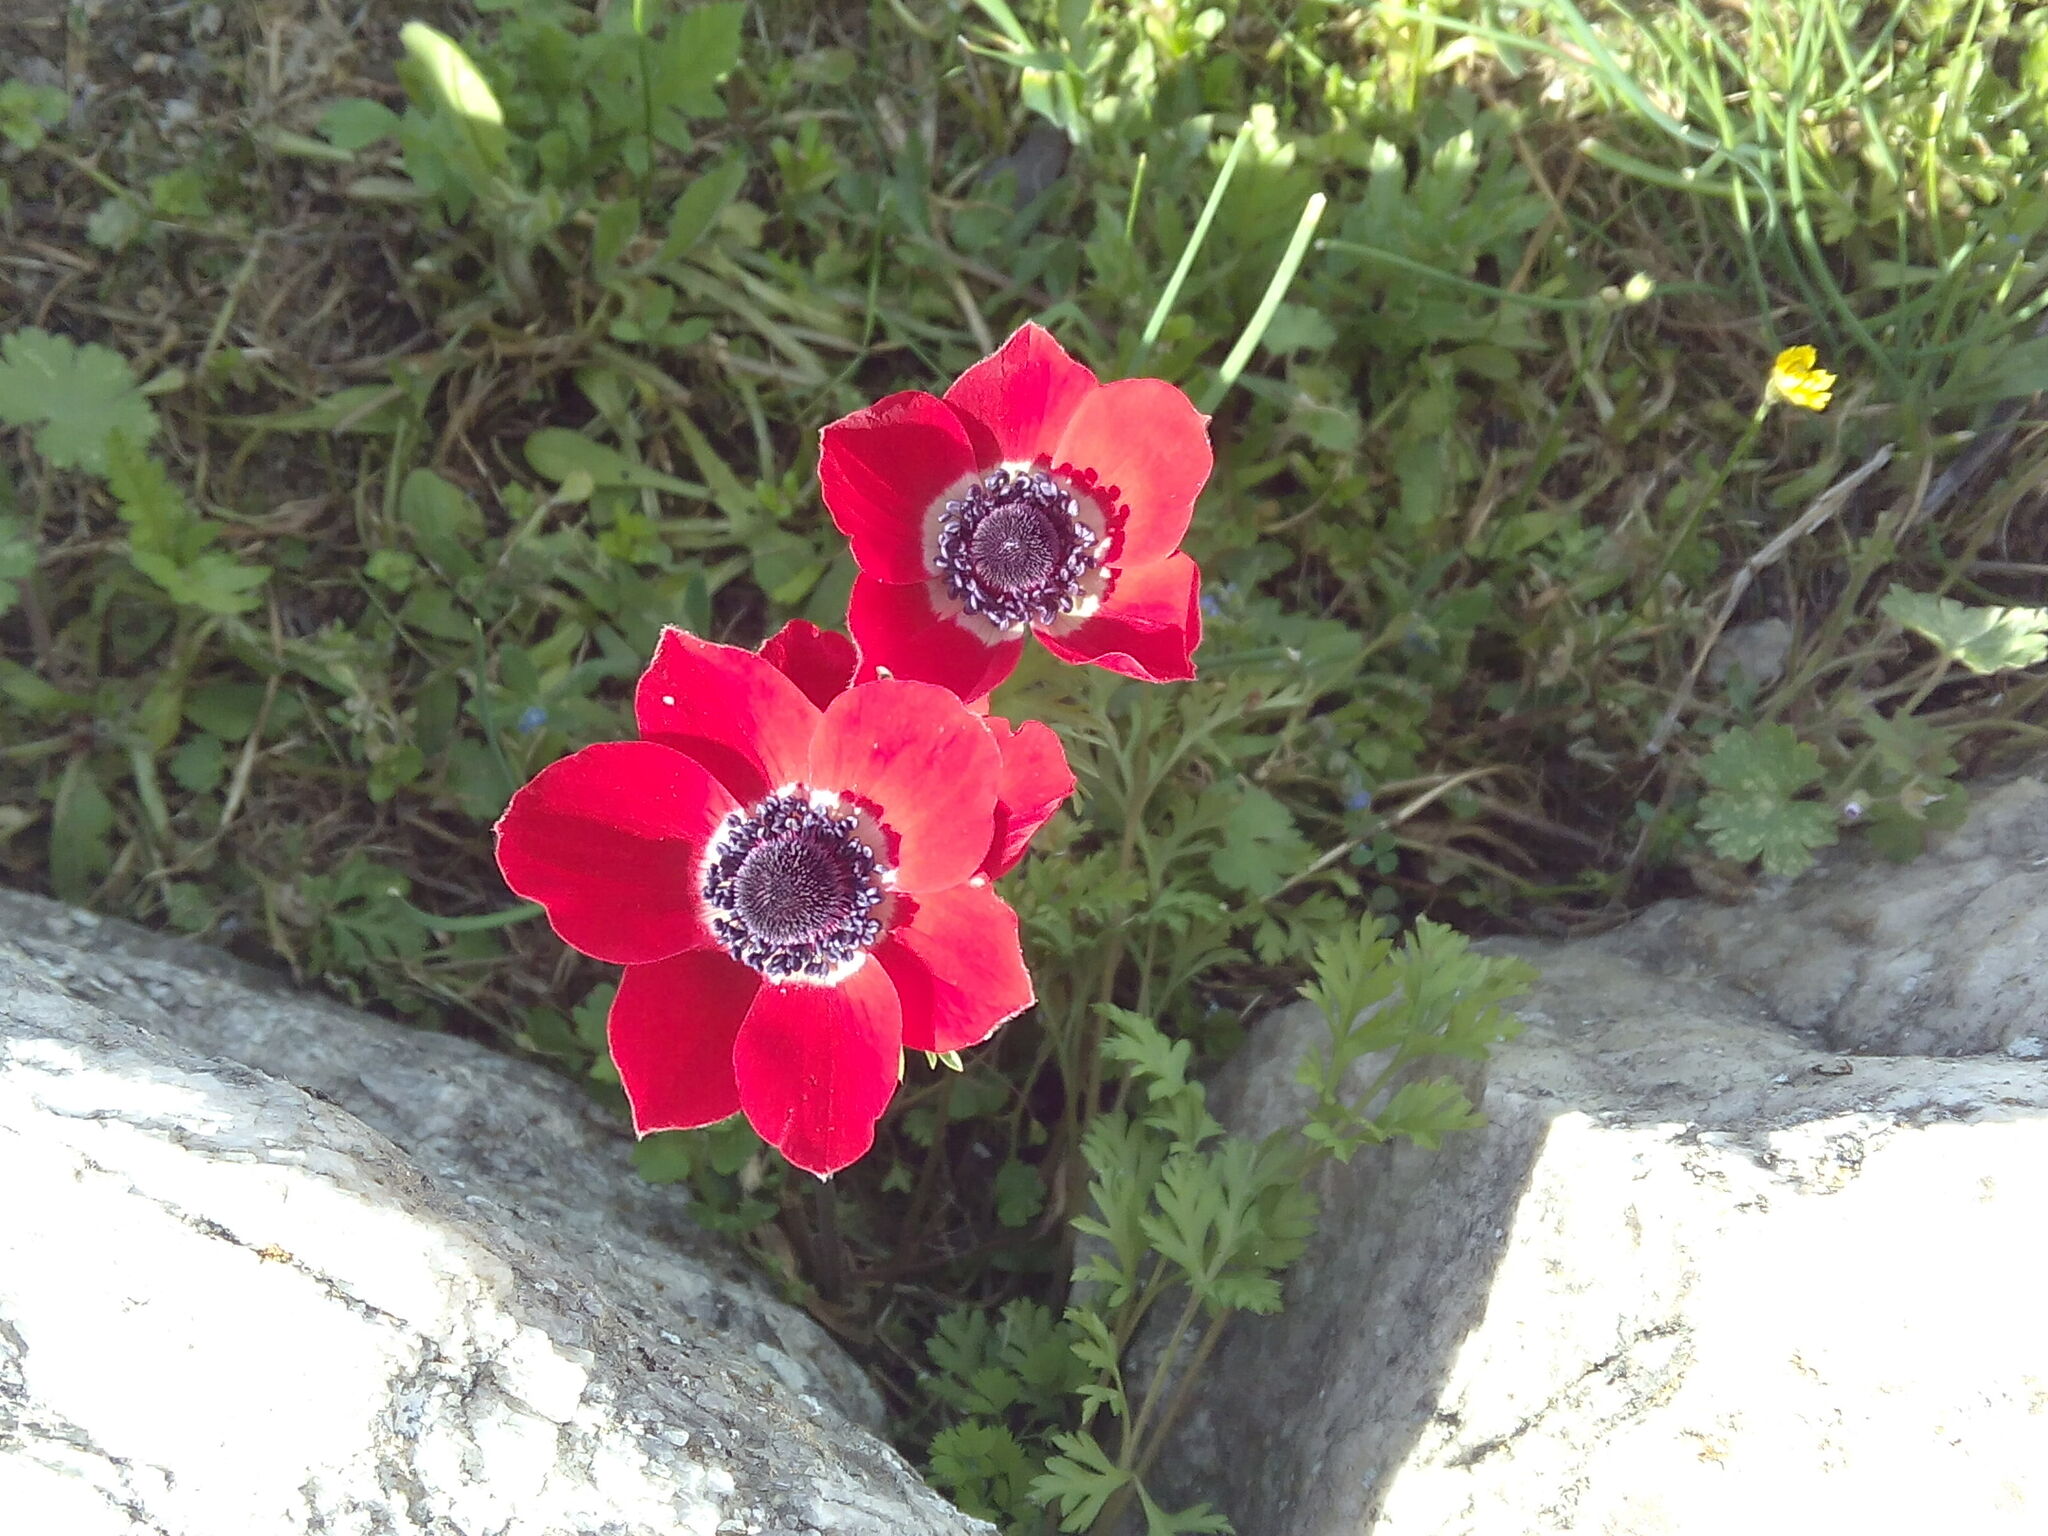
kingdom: Plantae
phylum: Tracheophyta
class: Magnoliopsida
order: Ranunculales
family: Ranunculaceae
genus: Anemone
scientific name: Anemone coronaria
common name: Poppy anemone
